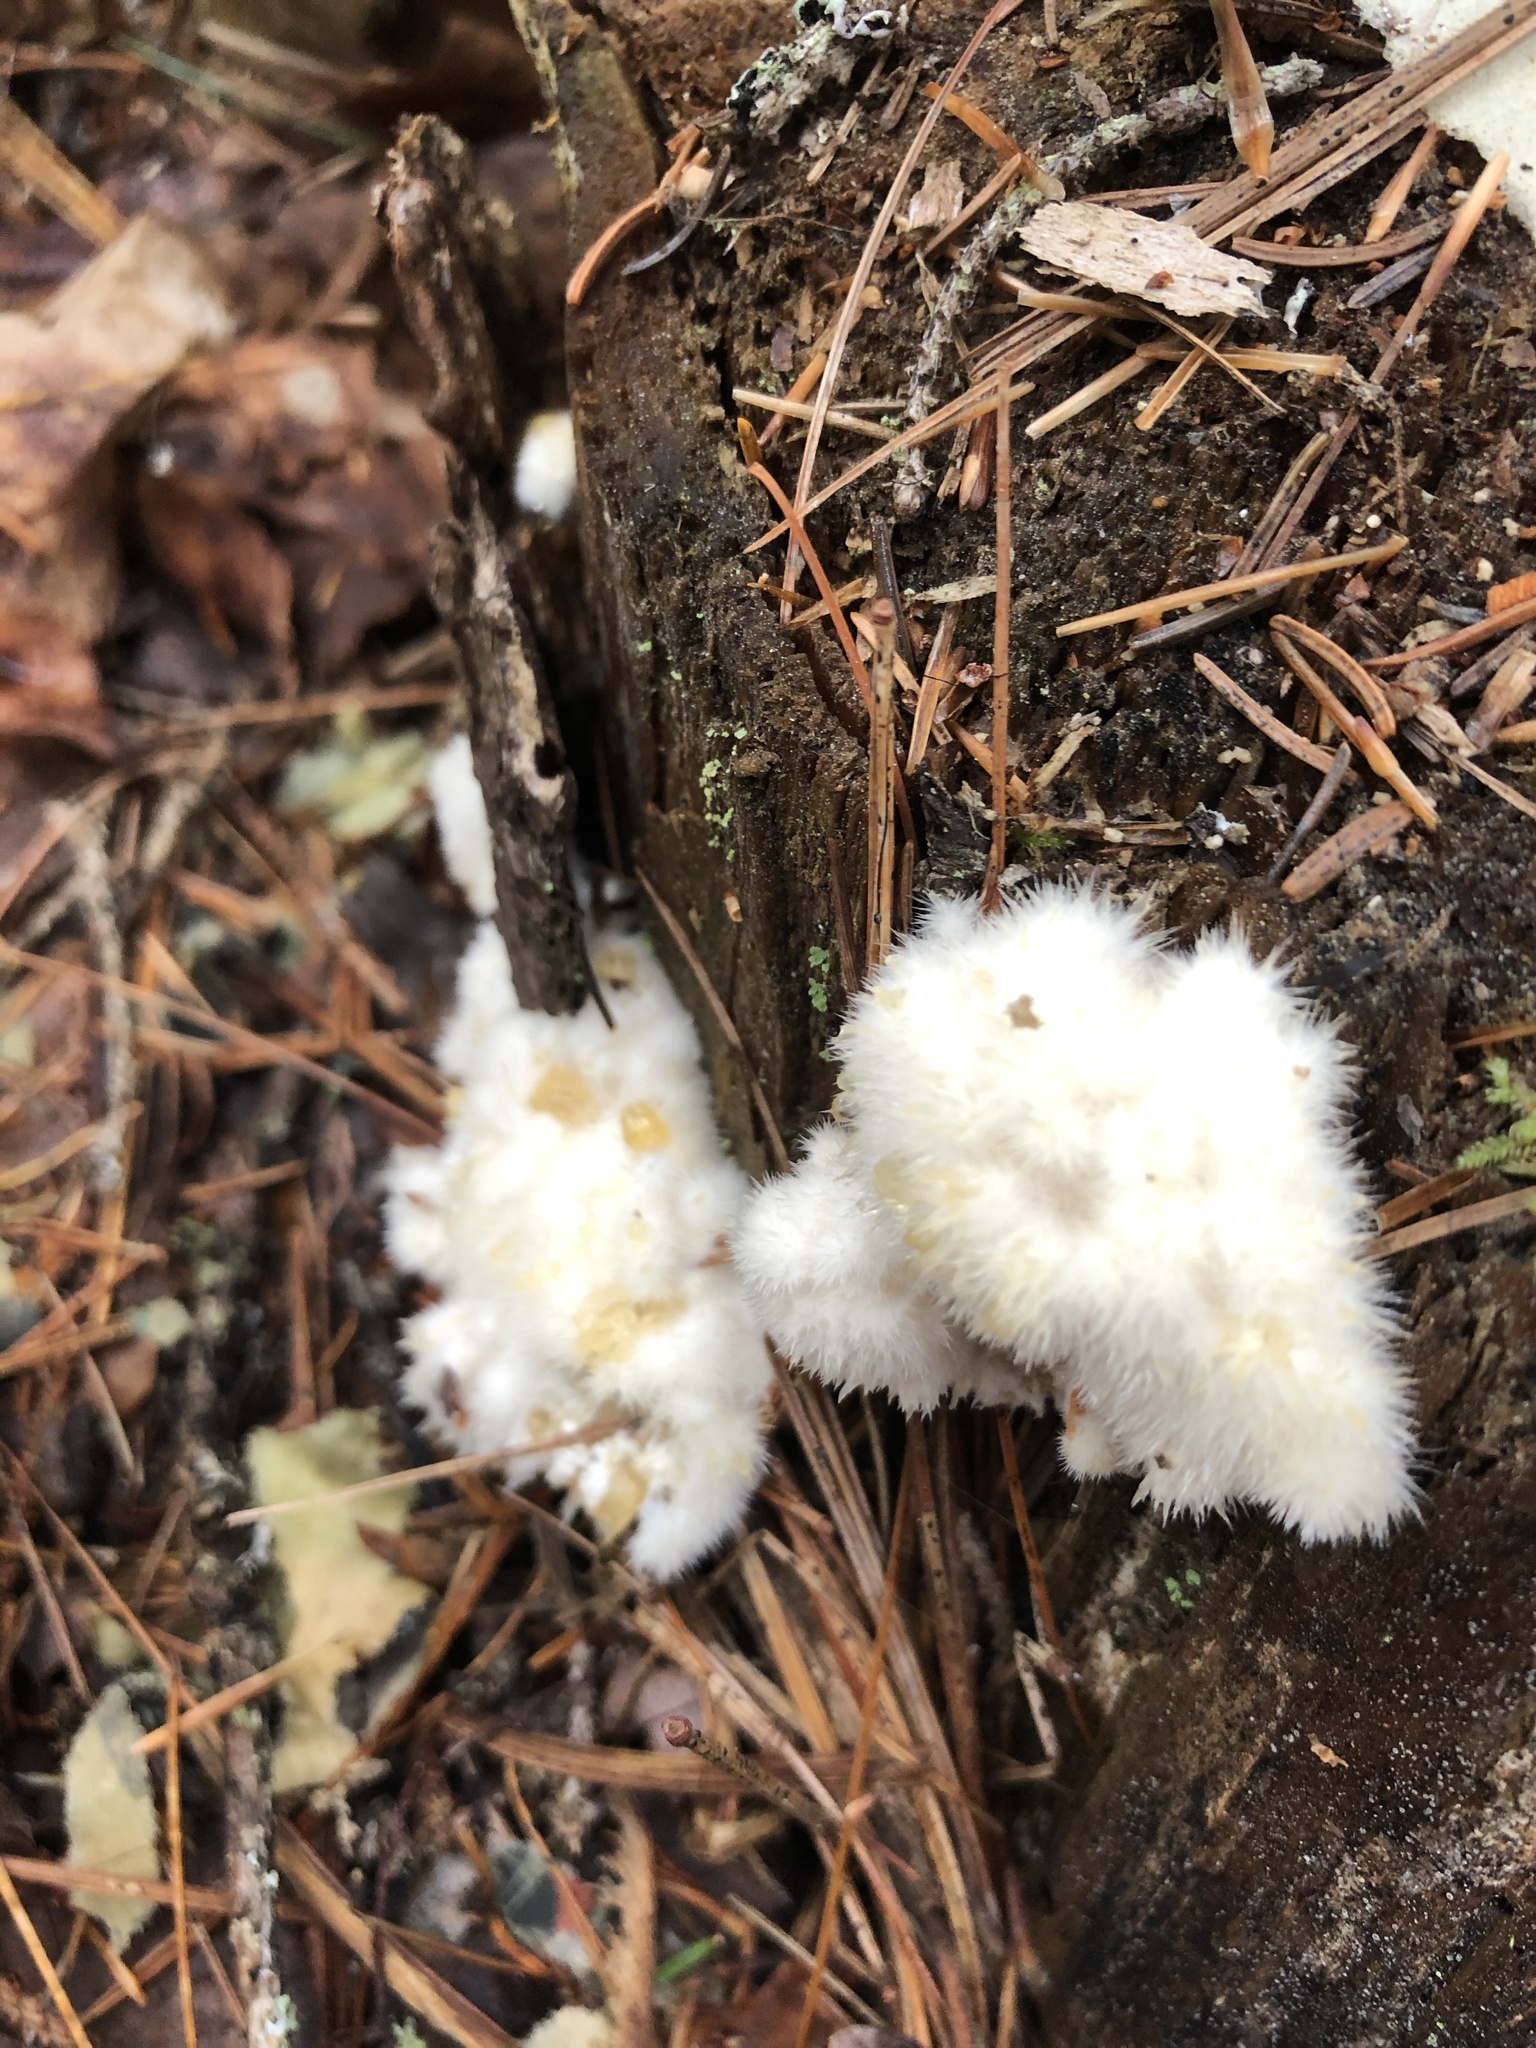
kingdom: Fungi
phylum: Basidiomycota
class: Agaricomycetes
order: Polyporales
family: Dacryobolaceae
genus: Postia
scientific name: Postia ptychogaster
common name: Powderpuff bracket
